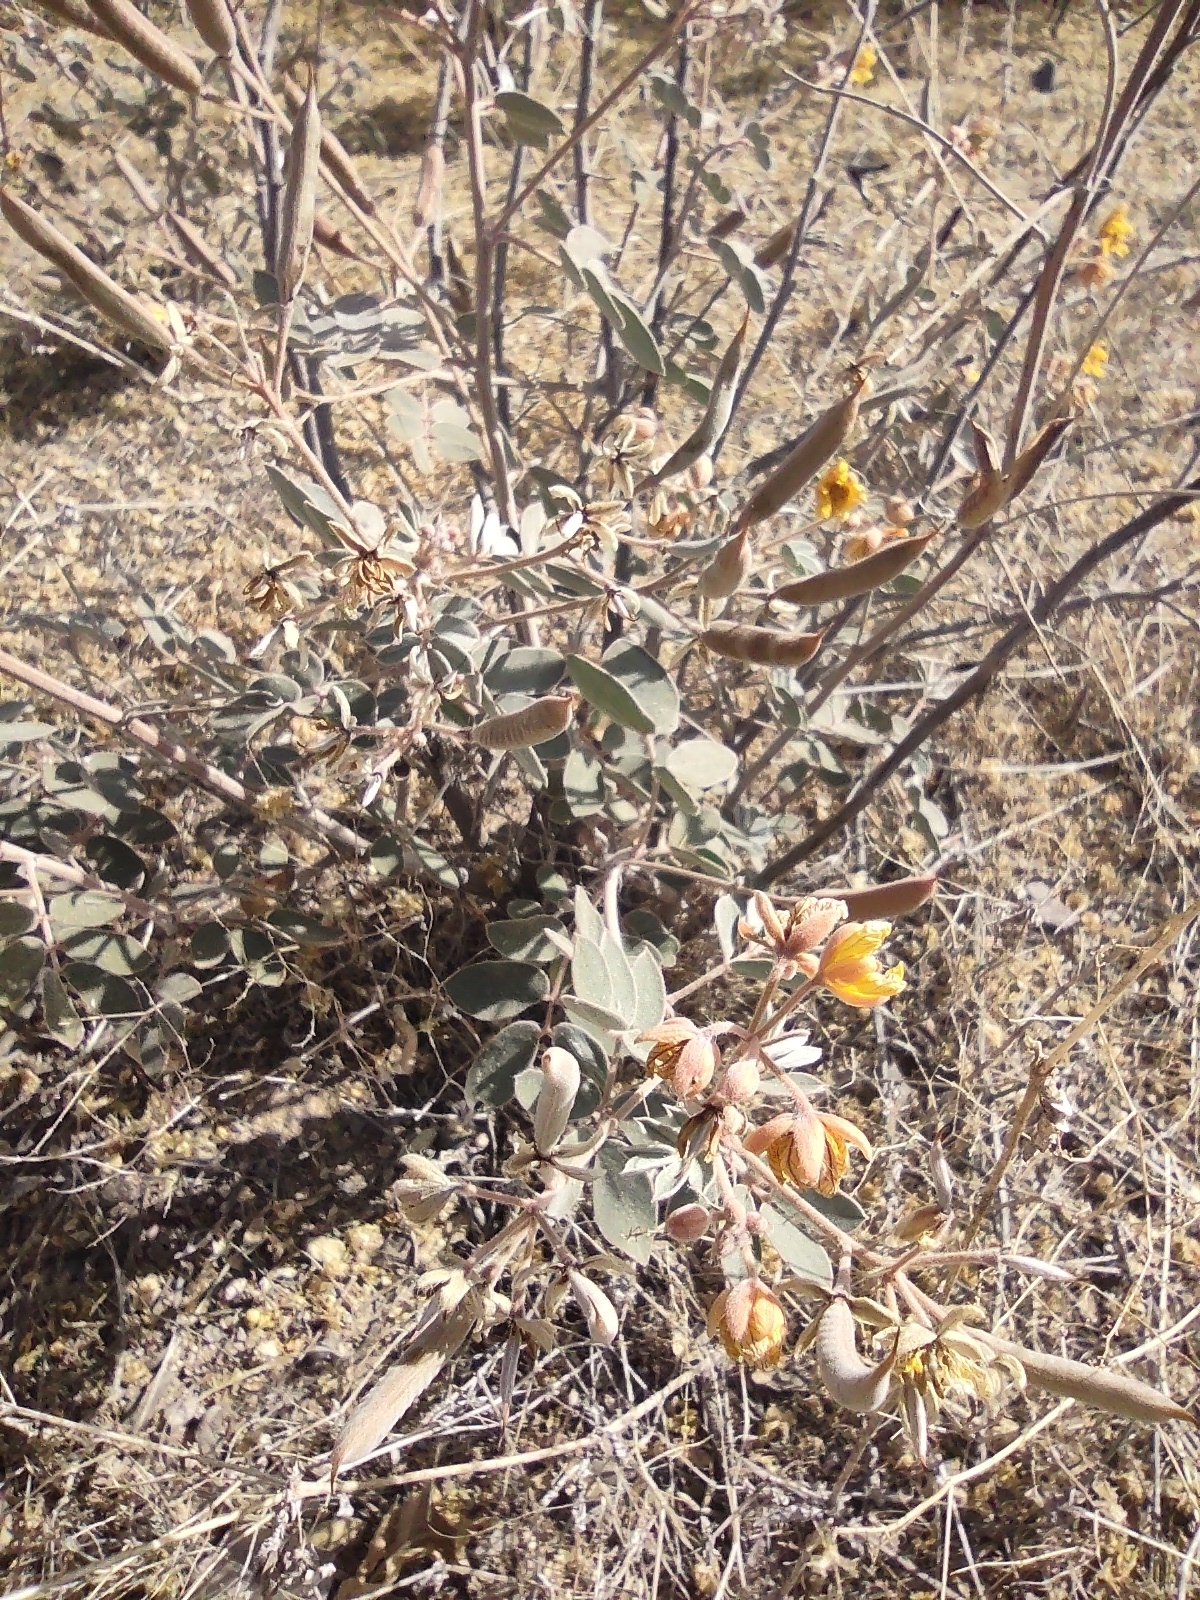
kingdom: Plantae
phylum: Tracheophyta
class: Magnoliopsida
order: Fabales
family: Fabaceae
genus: Senna
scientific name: Senna covesii
